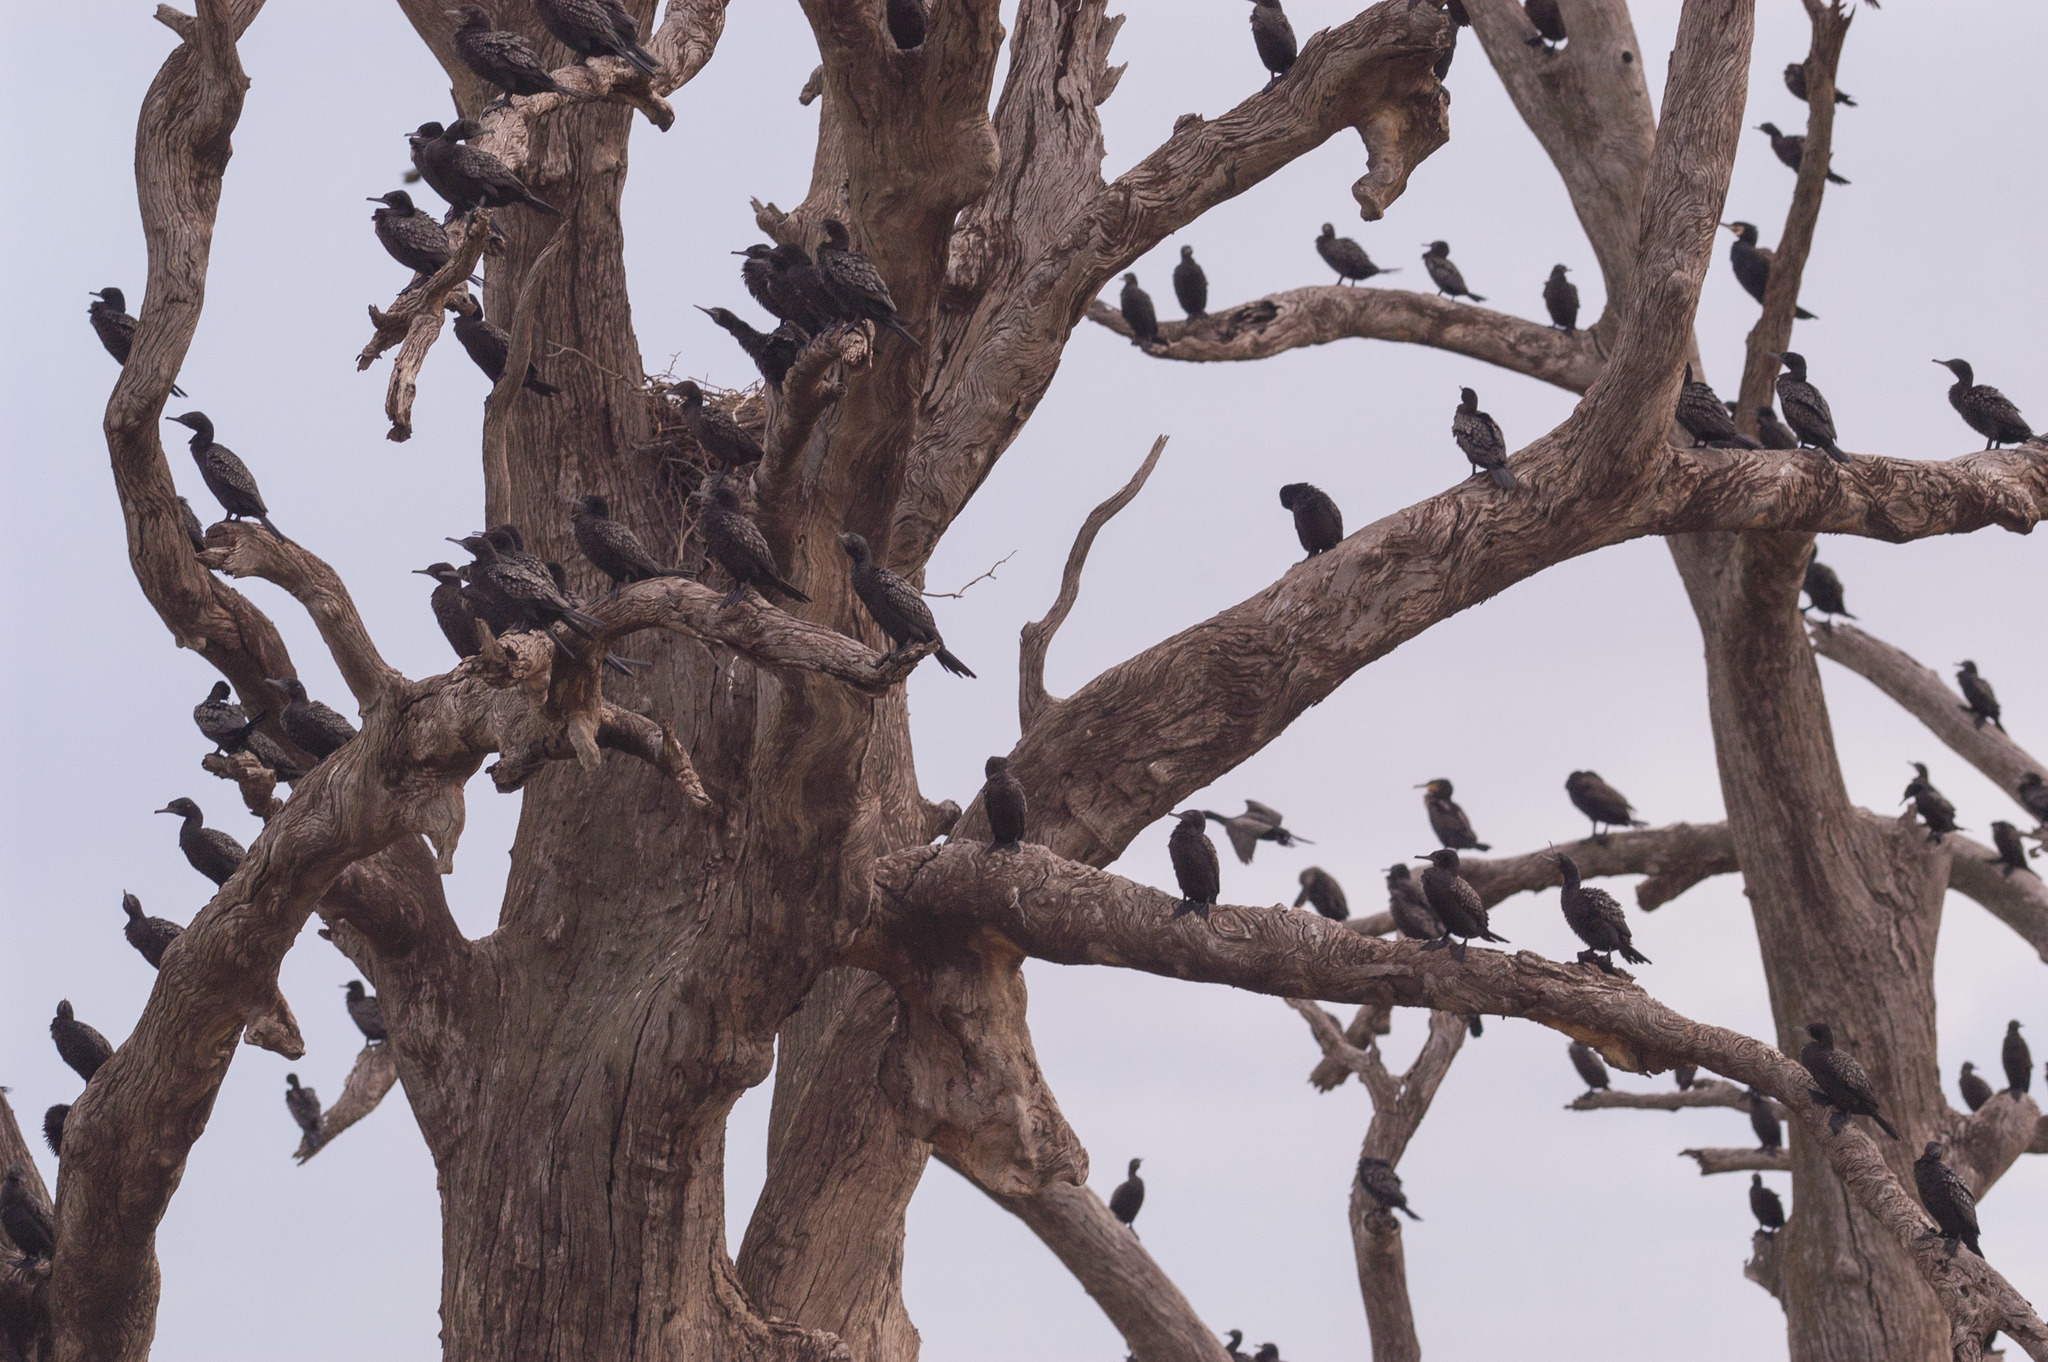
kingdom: Animalia
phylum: Chordata
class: Aves
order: Suliformes
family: Phalacrocoracidae
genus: Phalacrocorax
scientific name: Phalacrocorax sulcirostris
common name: Little black cormorant
